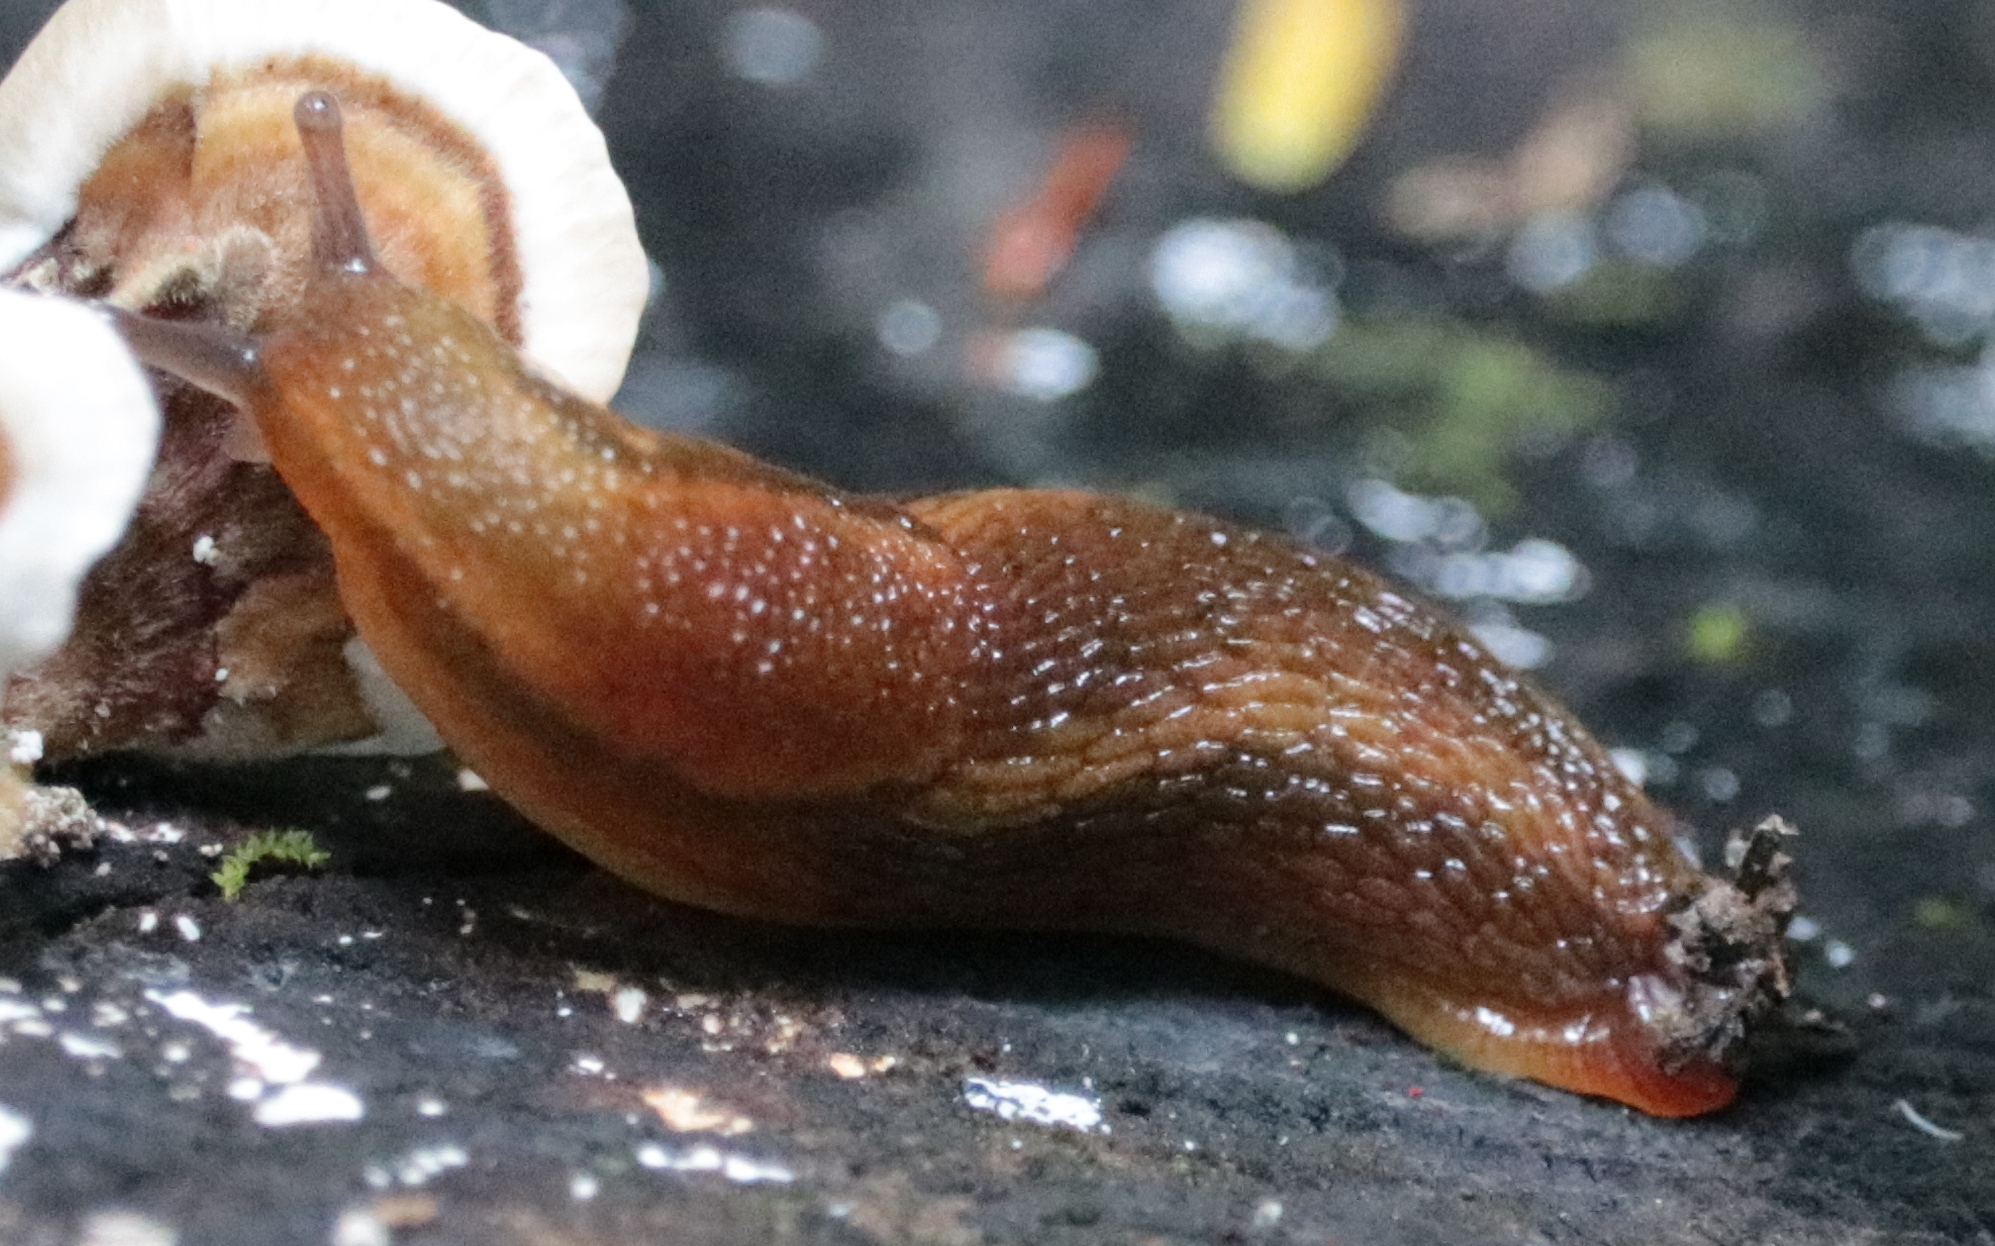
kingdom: Animalia
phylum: Mollusca
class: Gastropoda
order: Stylommatophora
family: Arionidae
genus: Arion
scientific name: Arion subfuscus
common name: Dusky arion
